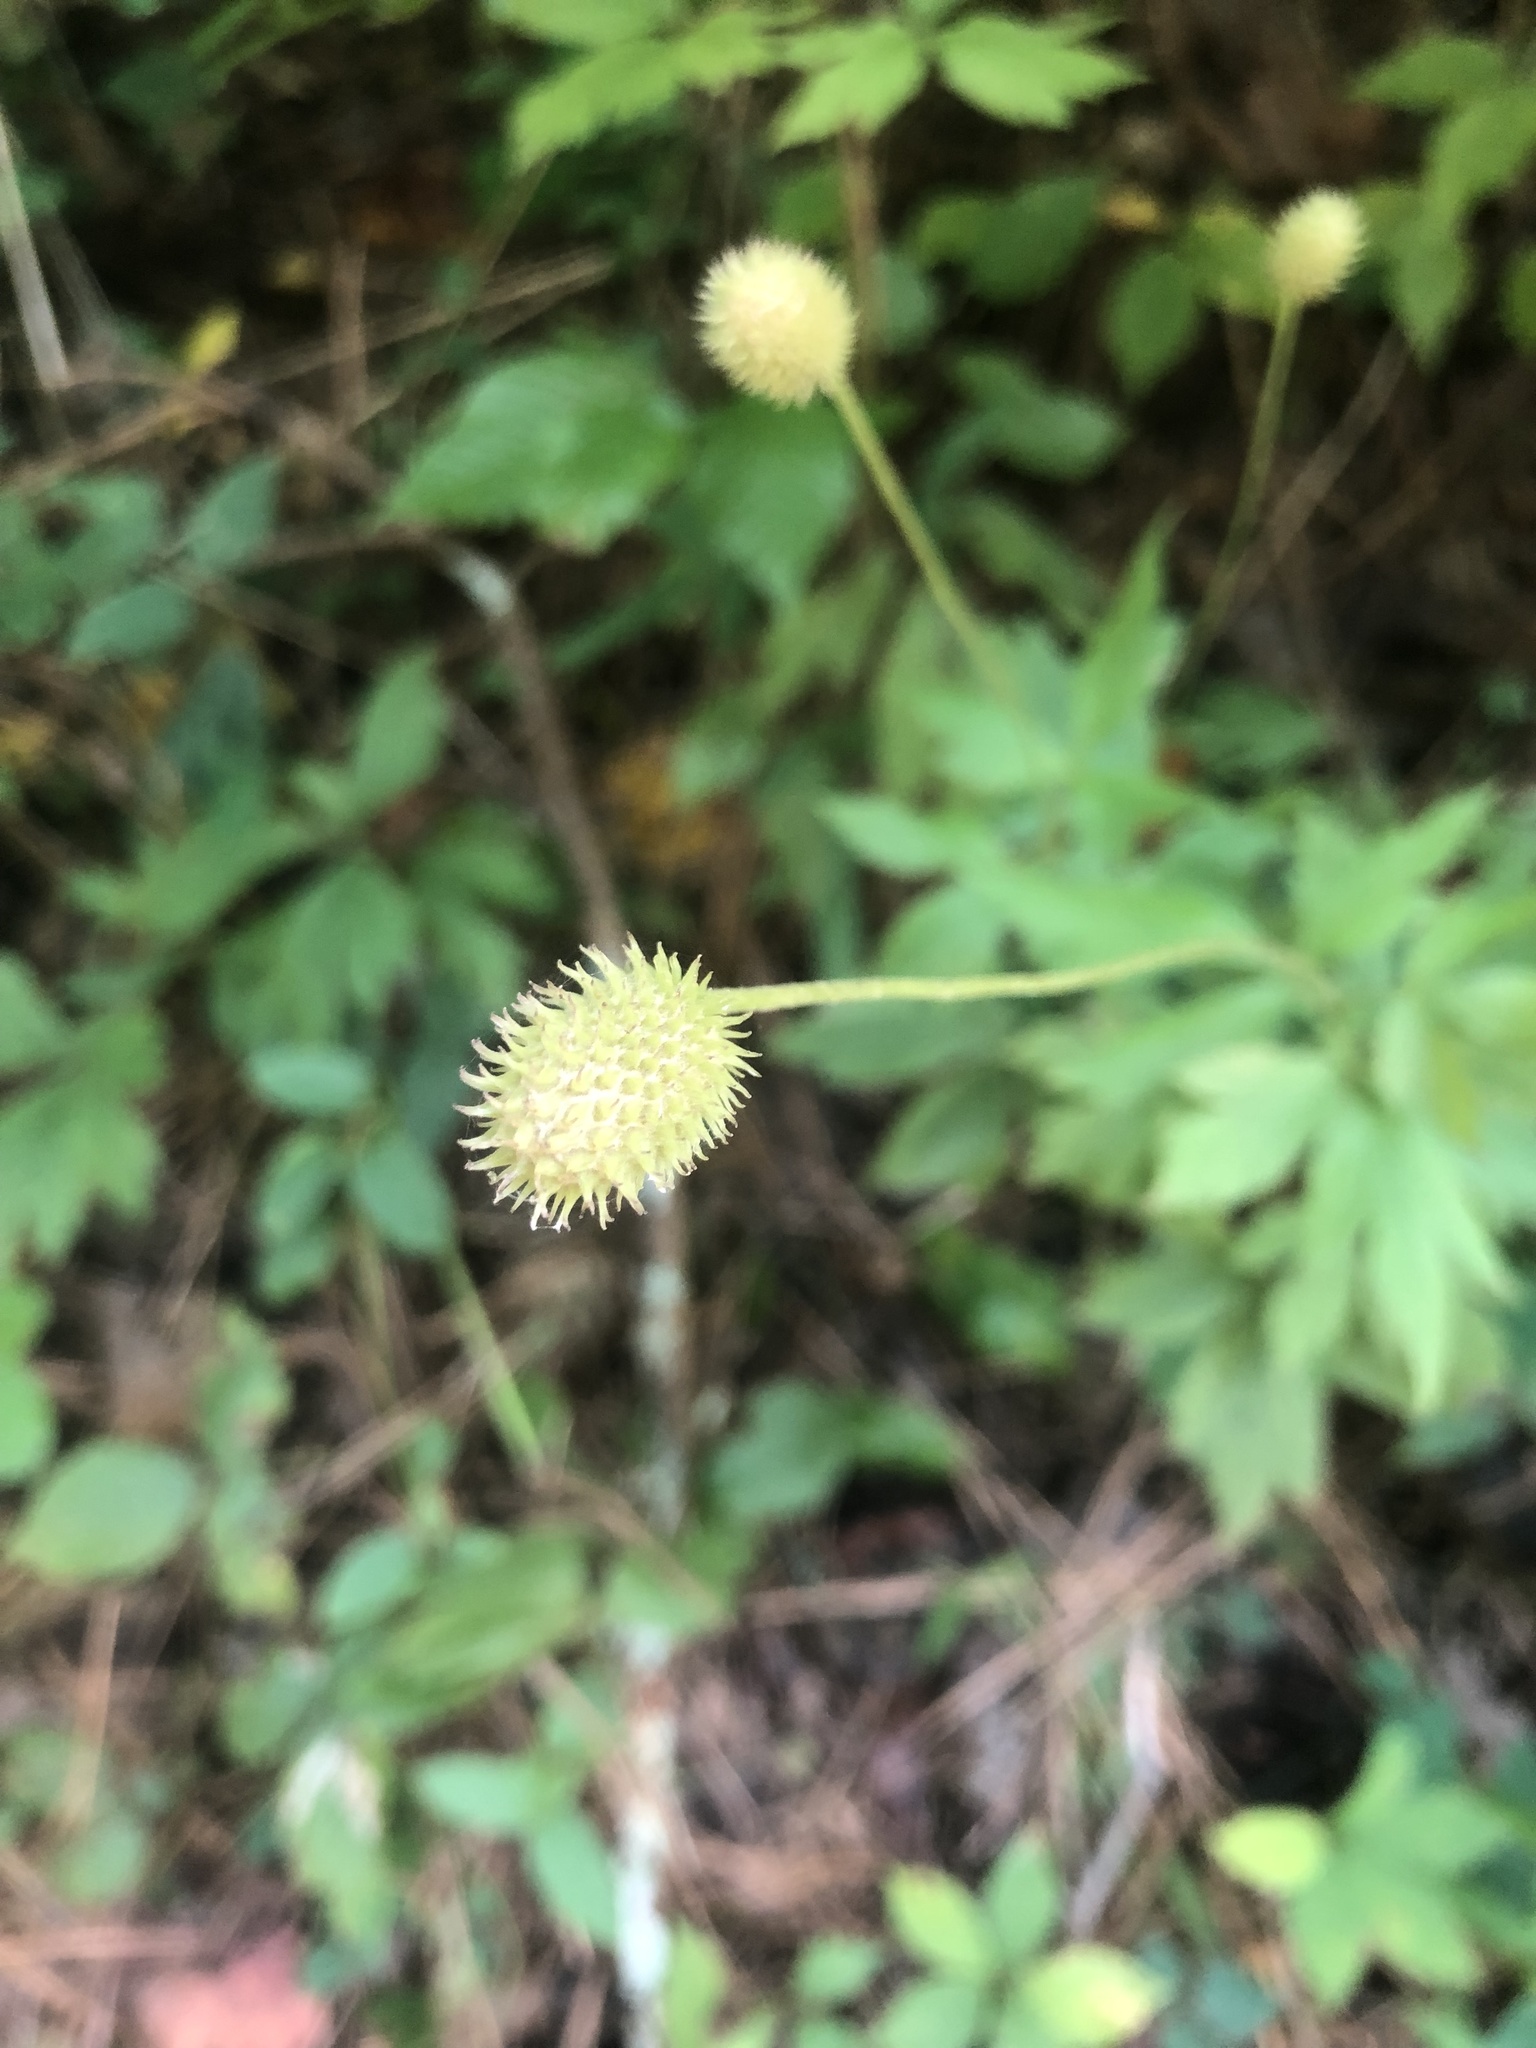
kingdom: Plantae
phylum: Tracheophyta
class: Magnoliopsida
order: Ranunculales
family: Ranunculaceae
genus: Anemone
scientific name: Anemone virginiana
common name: Tall anemone
